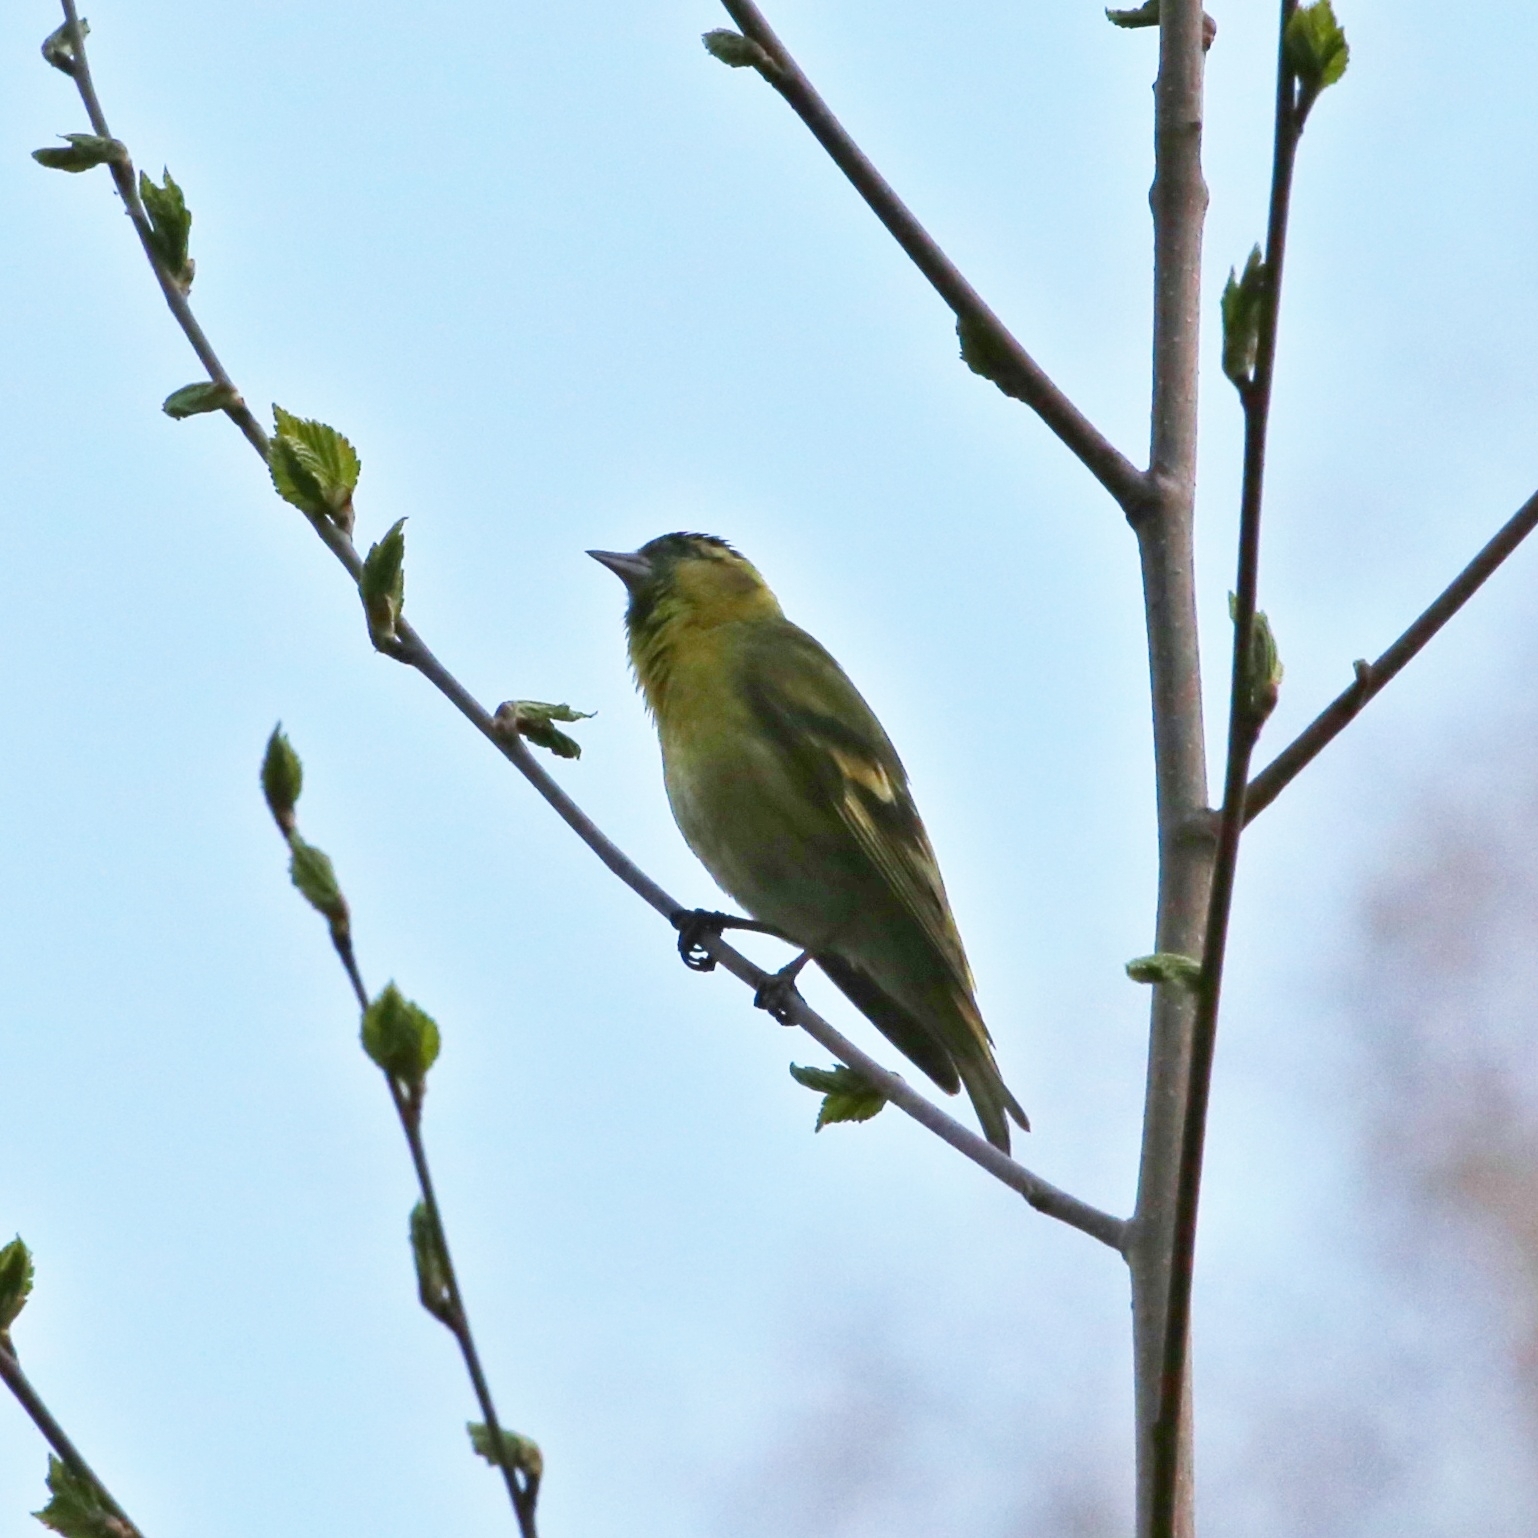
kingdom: Animalia
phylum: Chordata
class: Aves
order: Passeriformes
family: Fringillidae
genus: Spinus
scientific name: Spinus spinus
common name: Eurasian siskin
